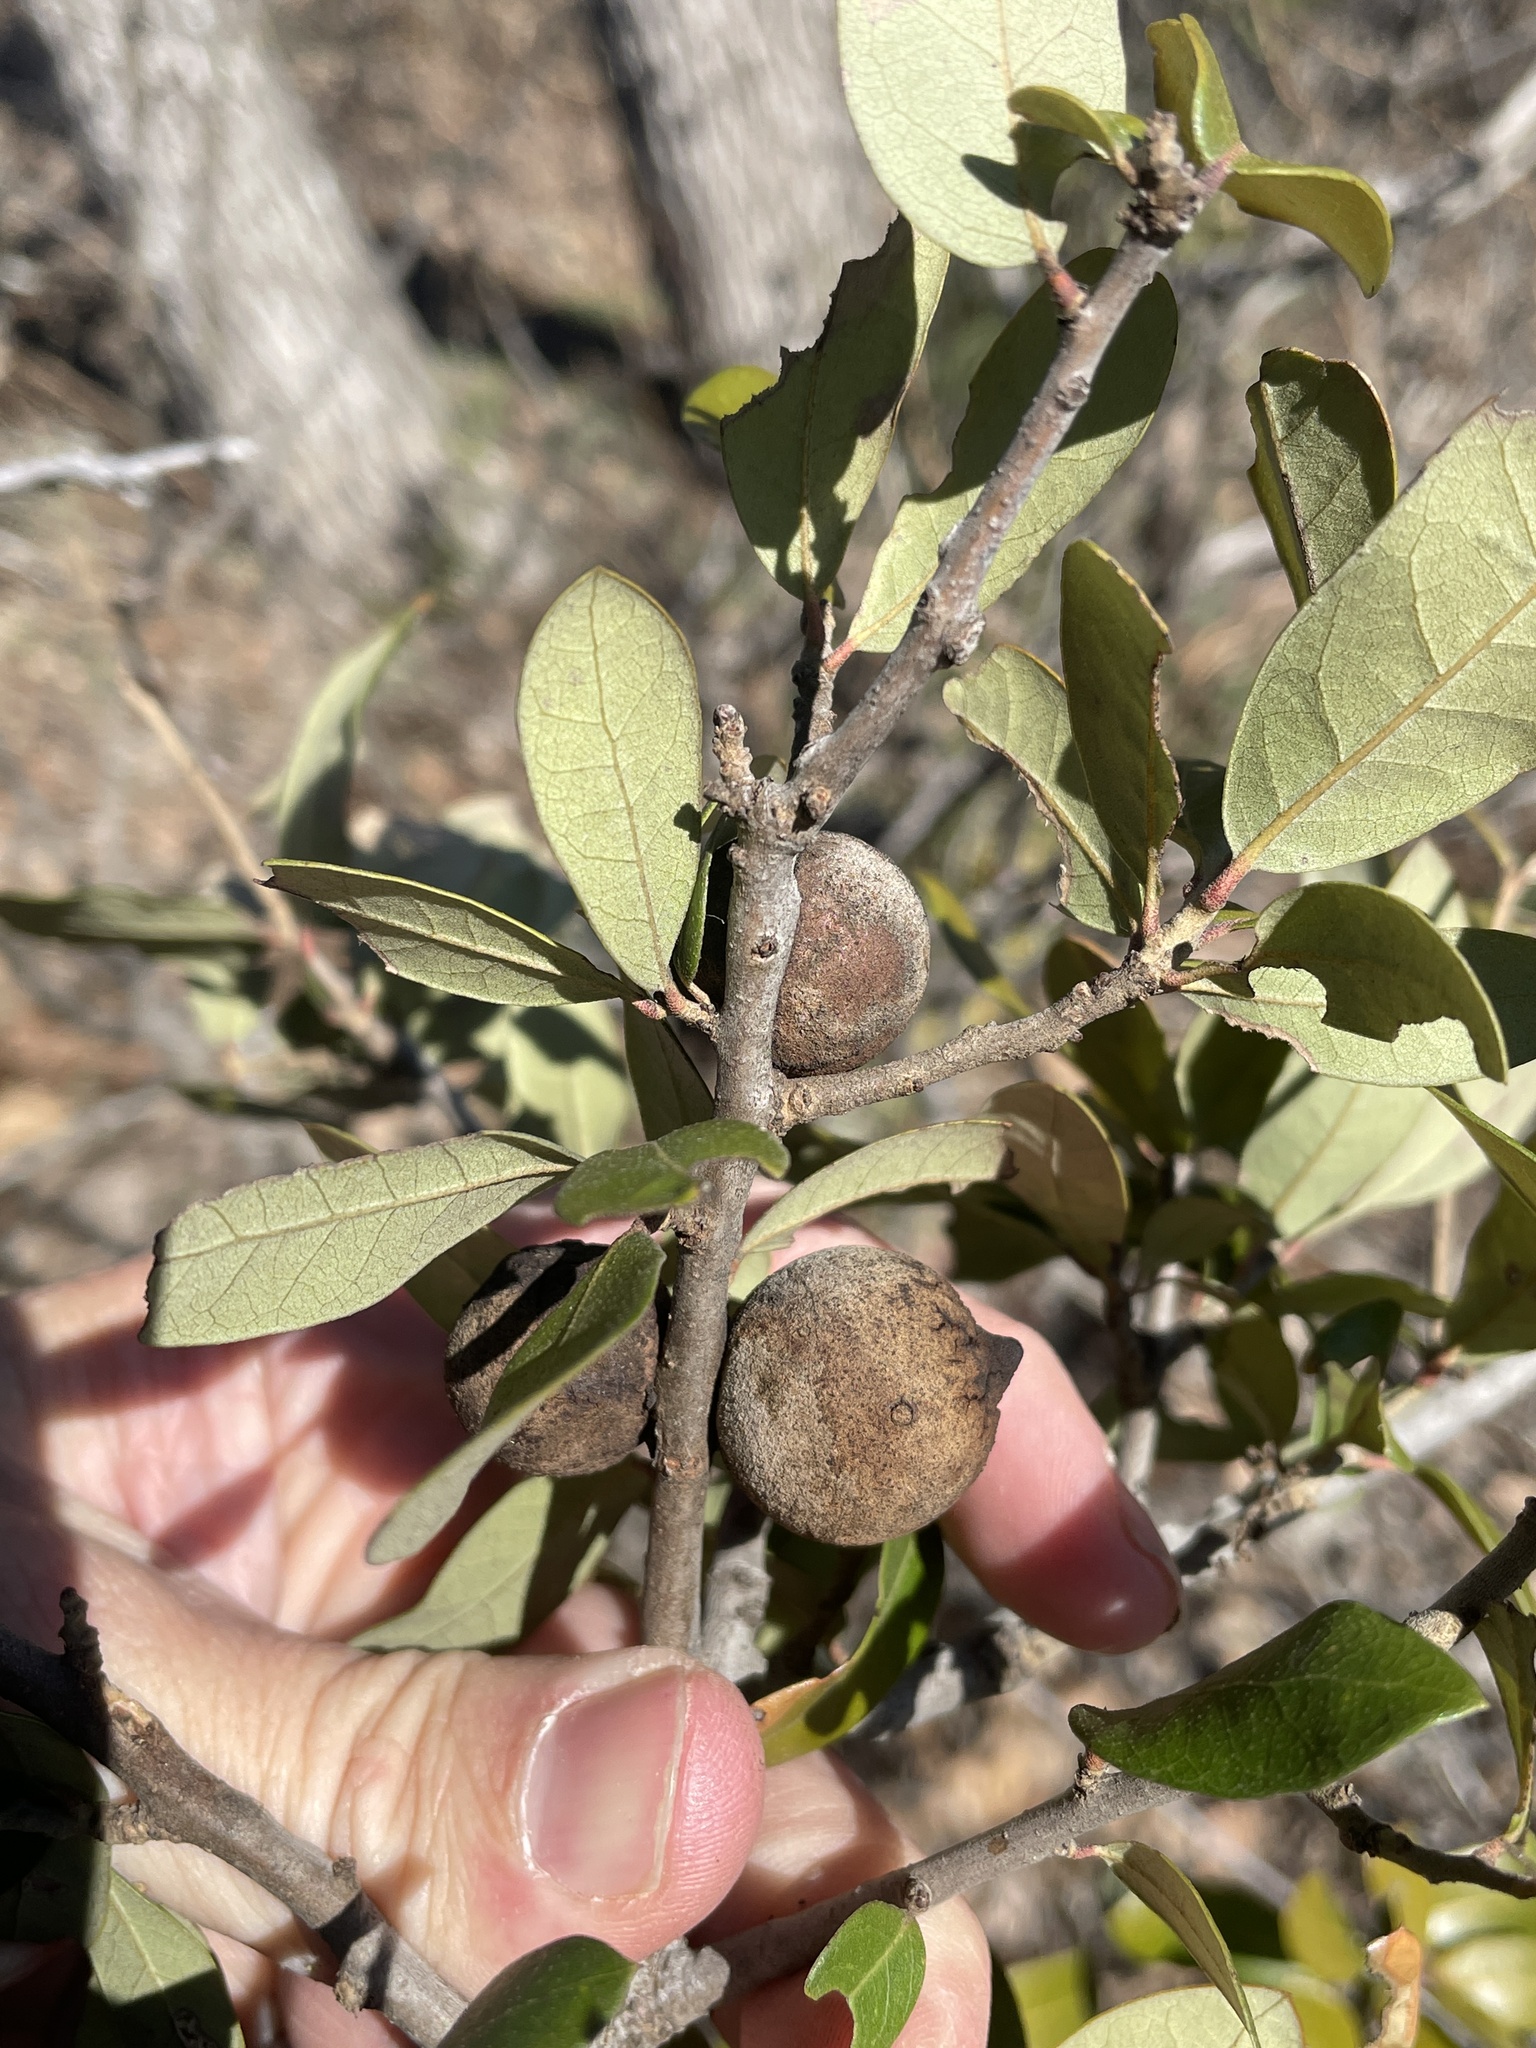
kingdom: Animalia
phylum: Arthropoda
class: Insecta
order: Hymenoptera
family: Cynipidae
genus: Disholcaspis
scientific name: Disholcaspis
